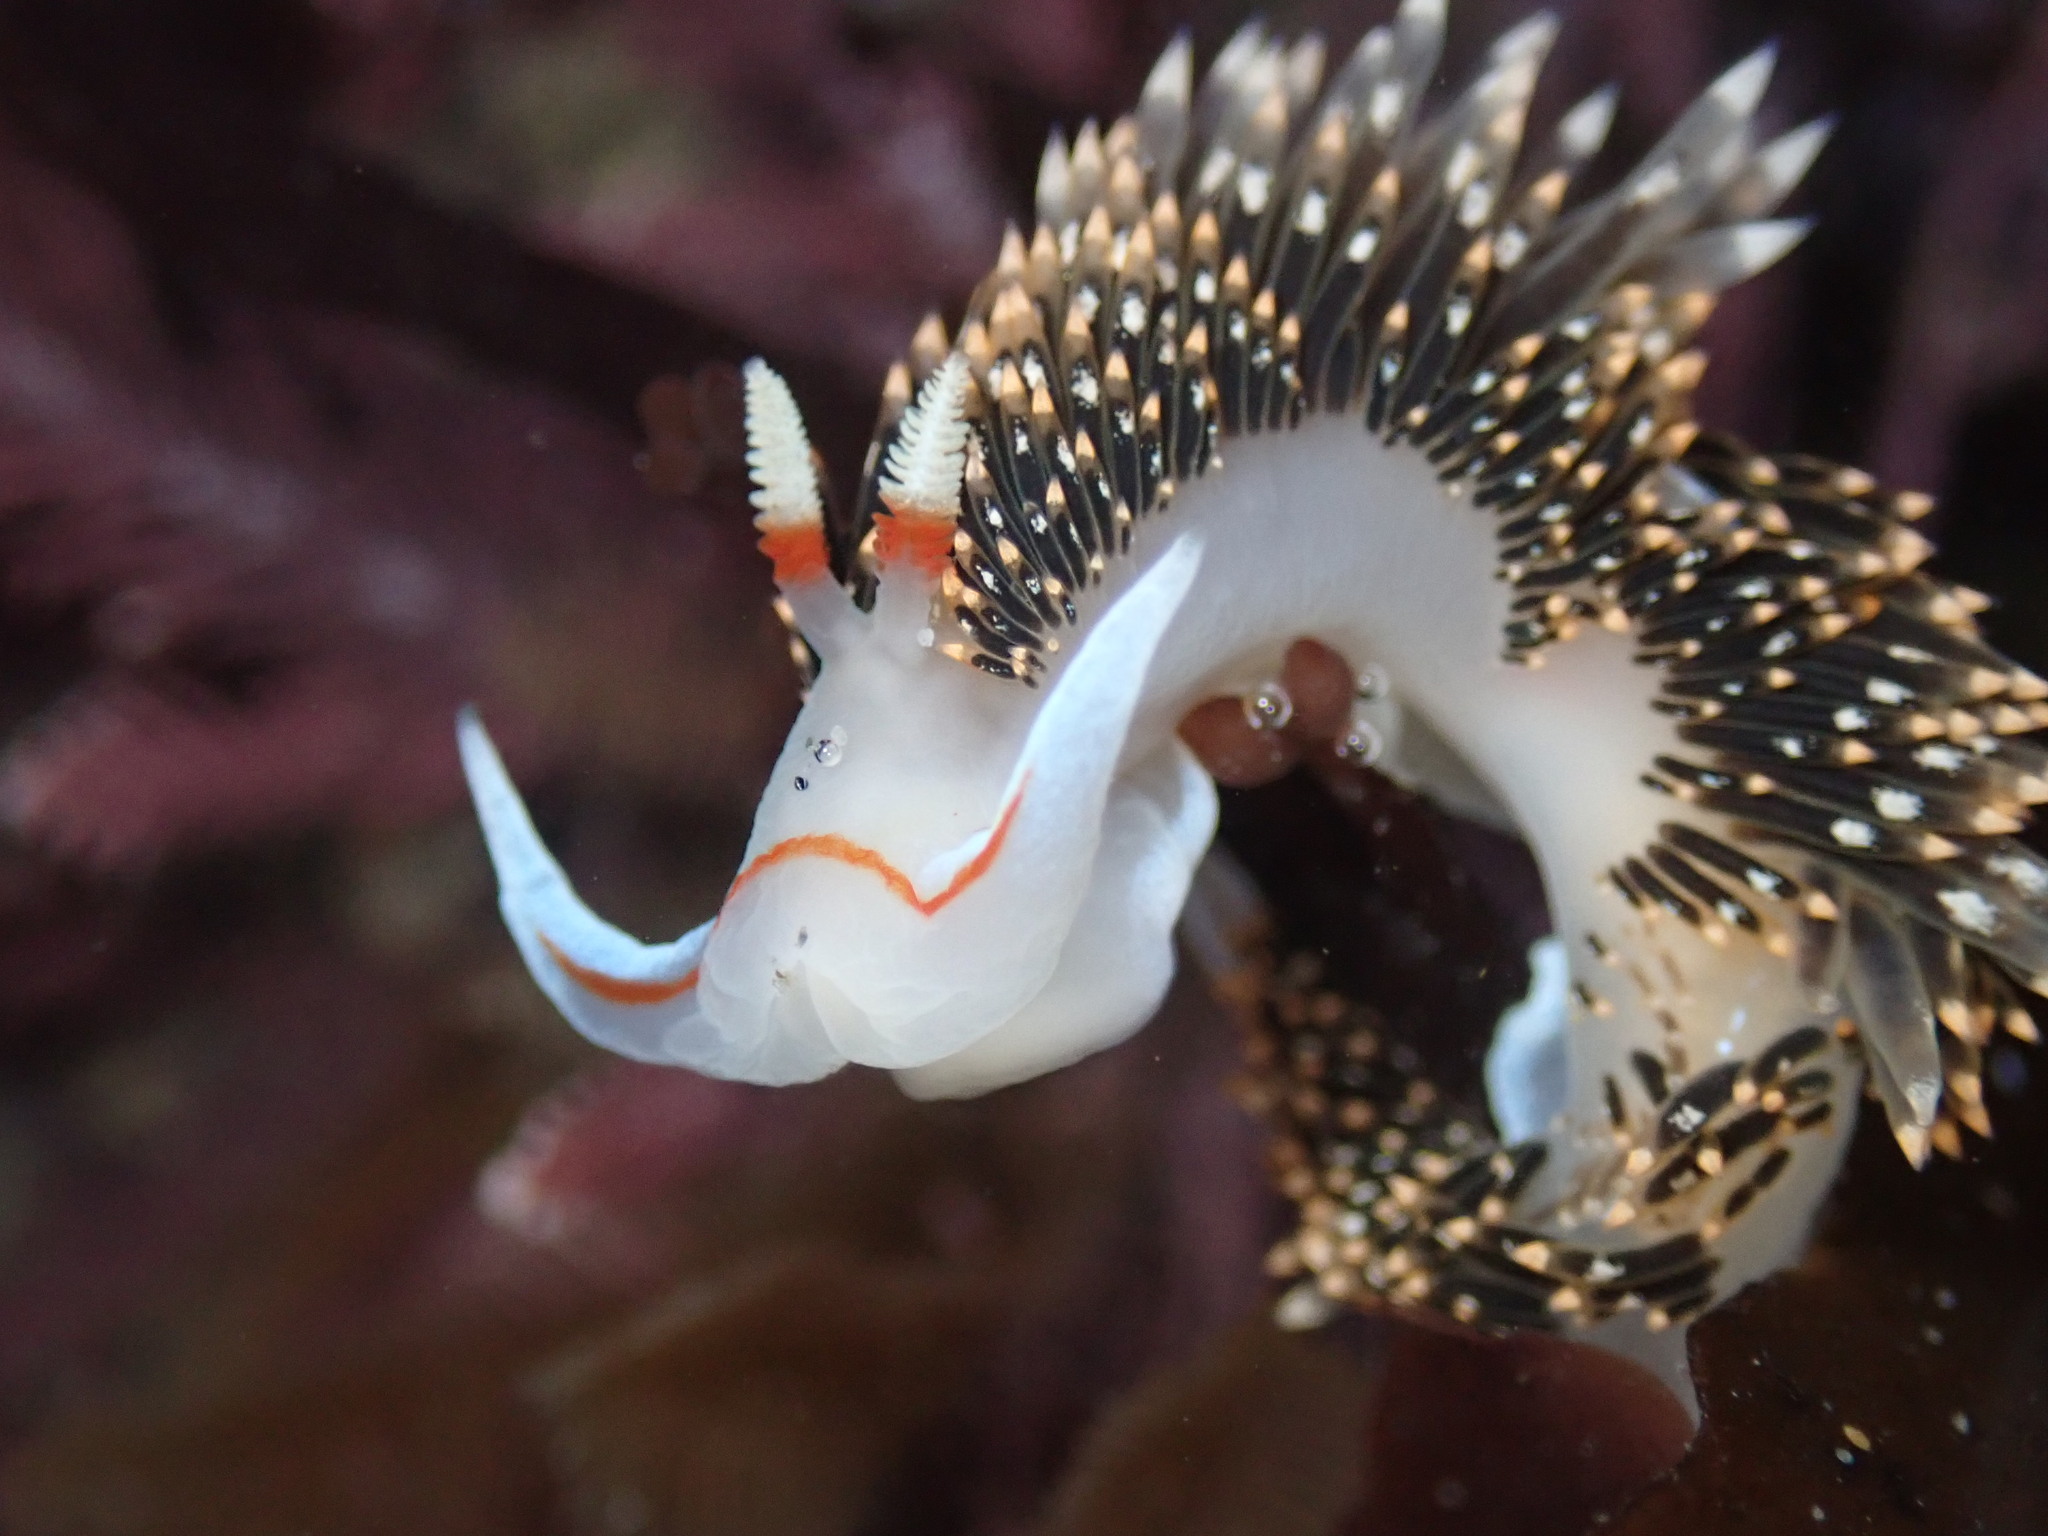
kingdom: Animalia
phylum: Mollusca
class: Gastropoda
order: Nudibranchia
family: Facelinidae
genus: Phidiana
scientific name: Phidiana hiltoni
